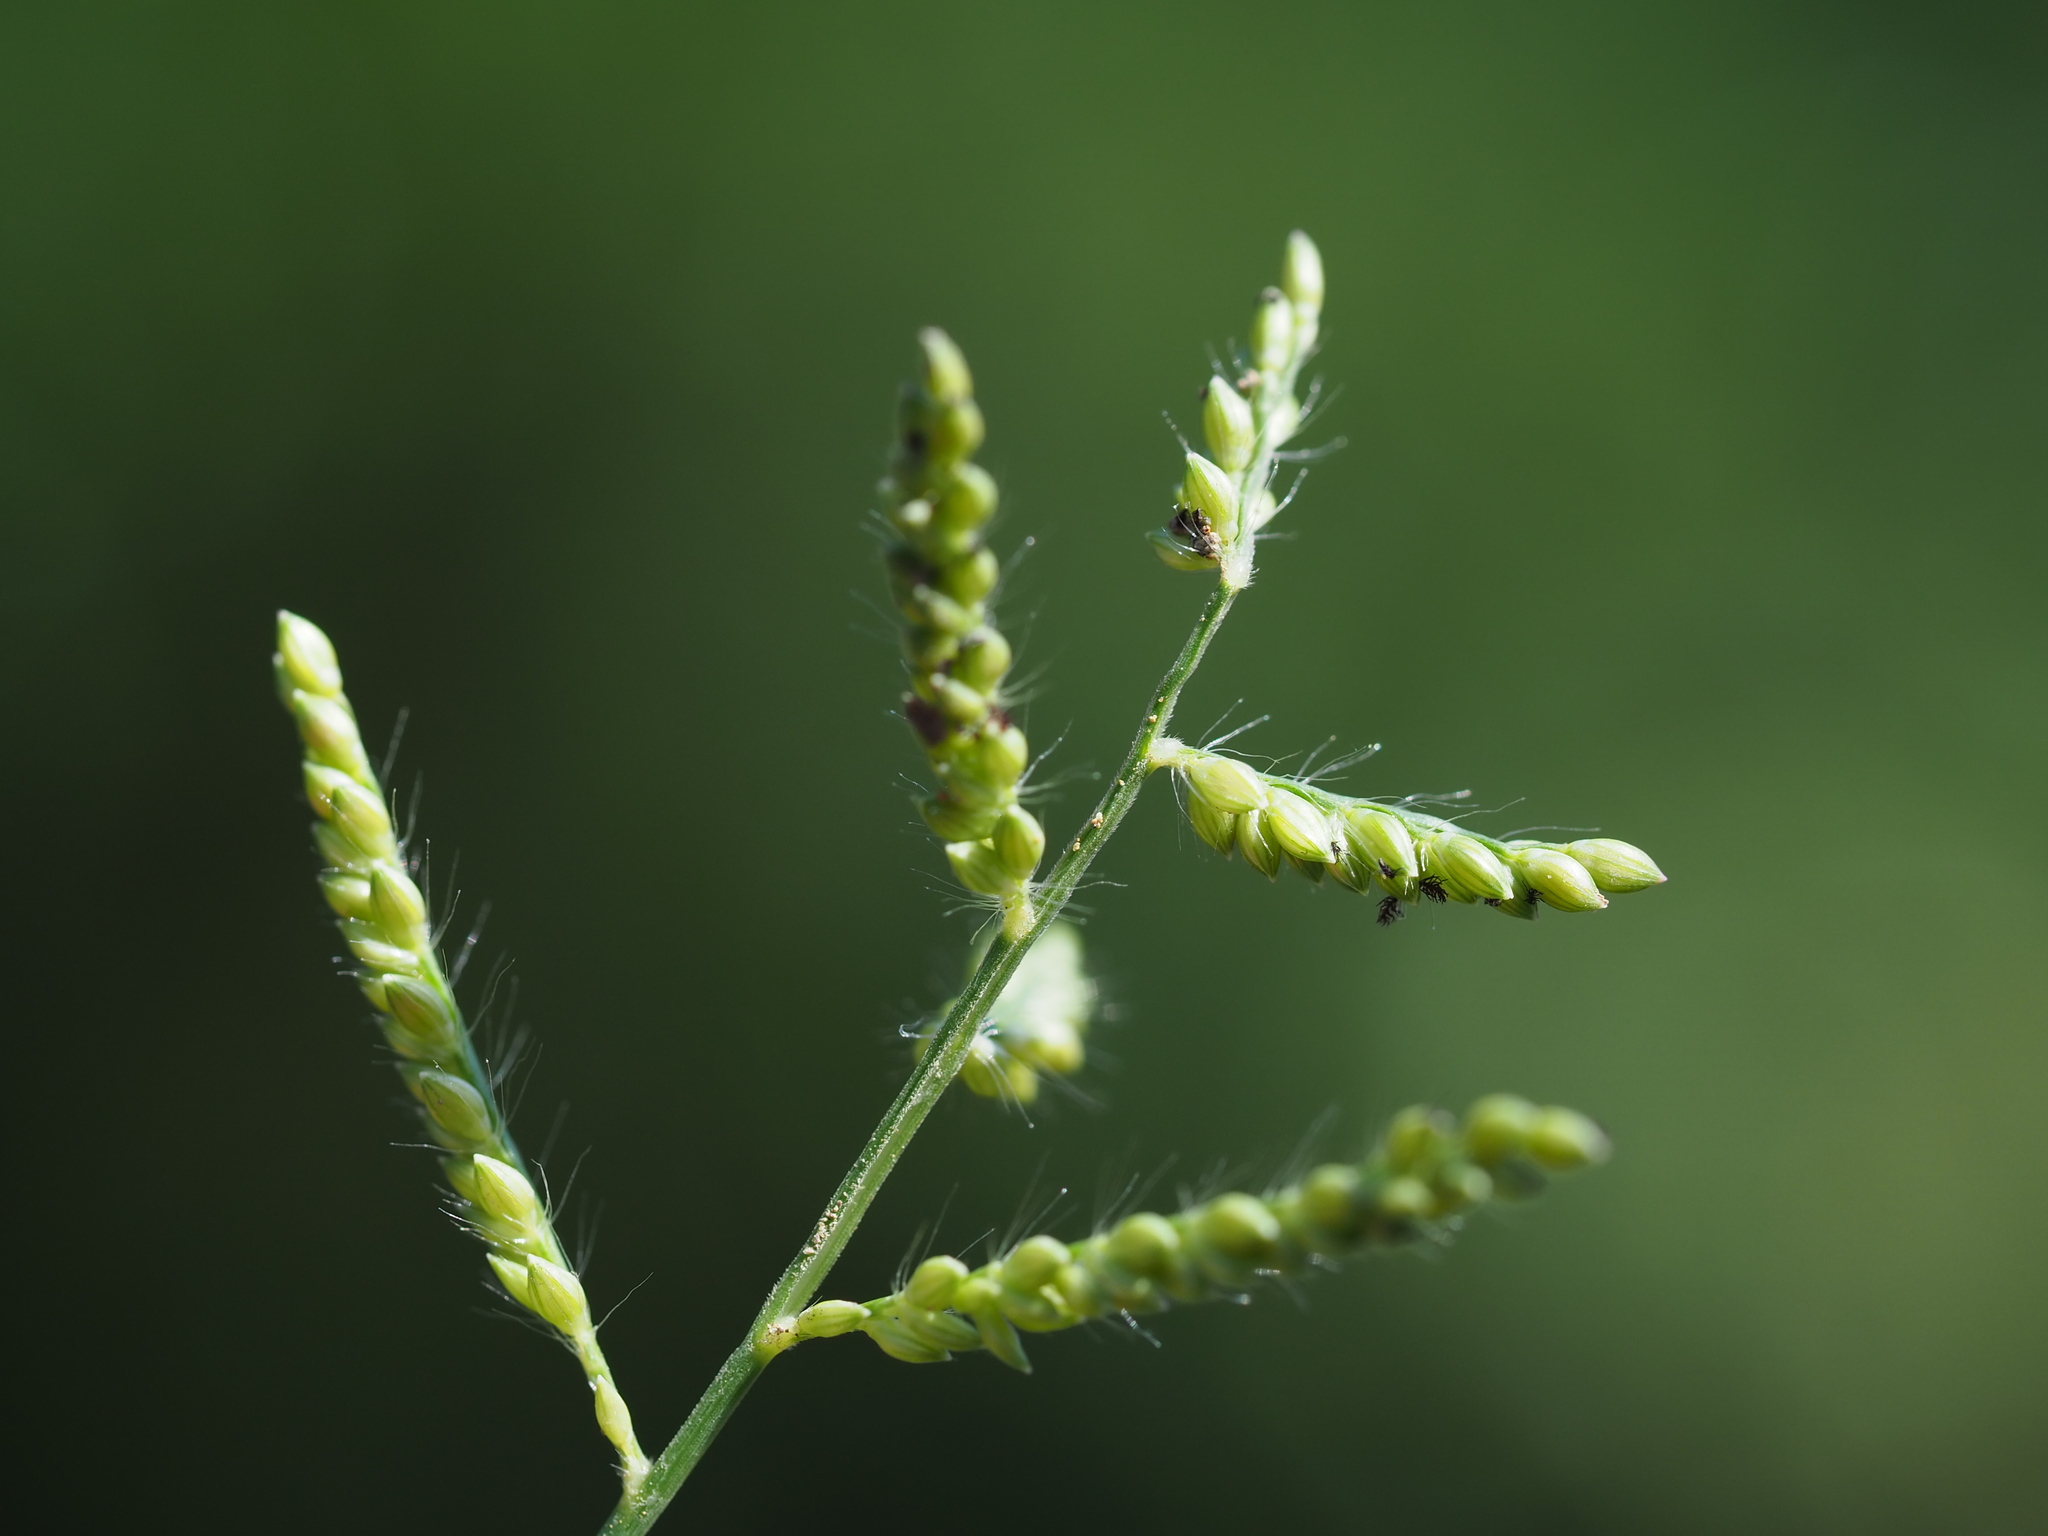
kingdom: Plantae
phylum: Tracheophyta
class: Liliopsida
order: Poales
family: Poaceae
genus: Urochloa
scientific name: Urochloa reptans
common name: Sprawling signalgrass
